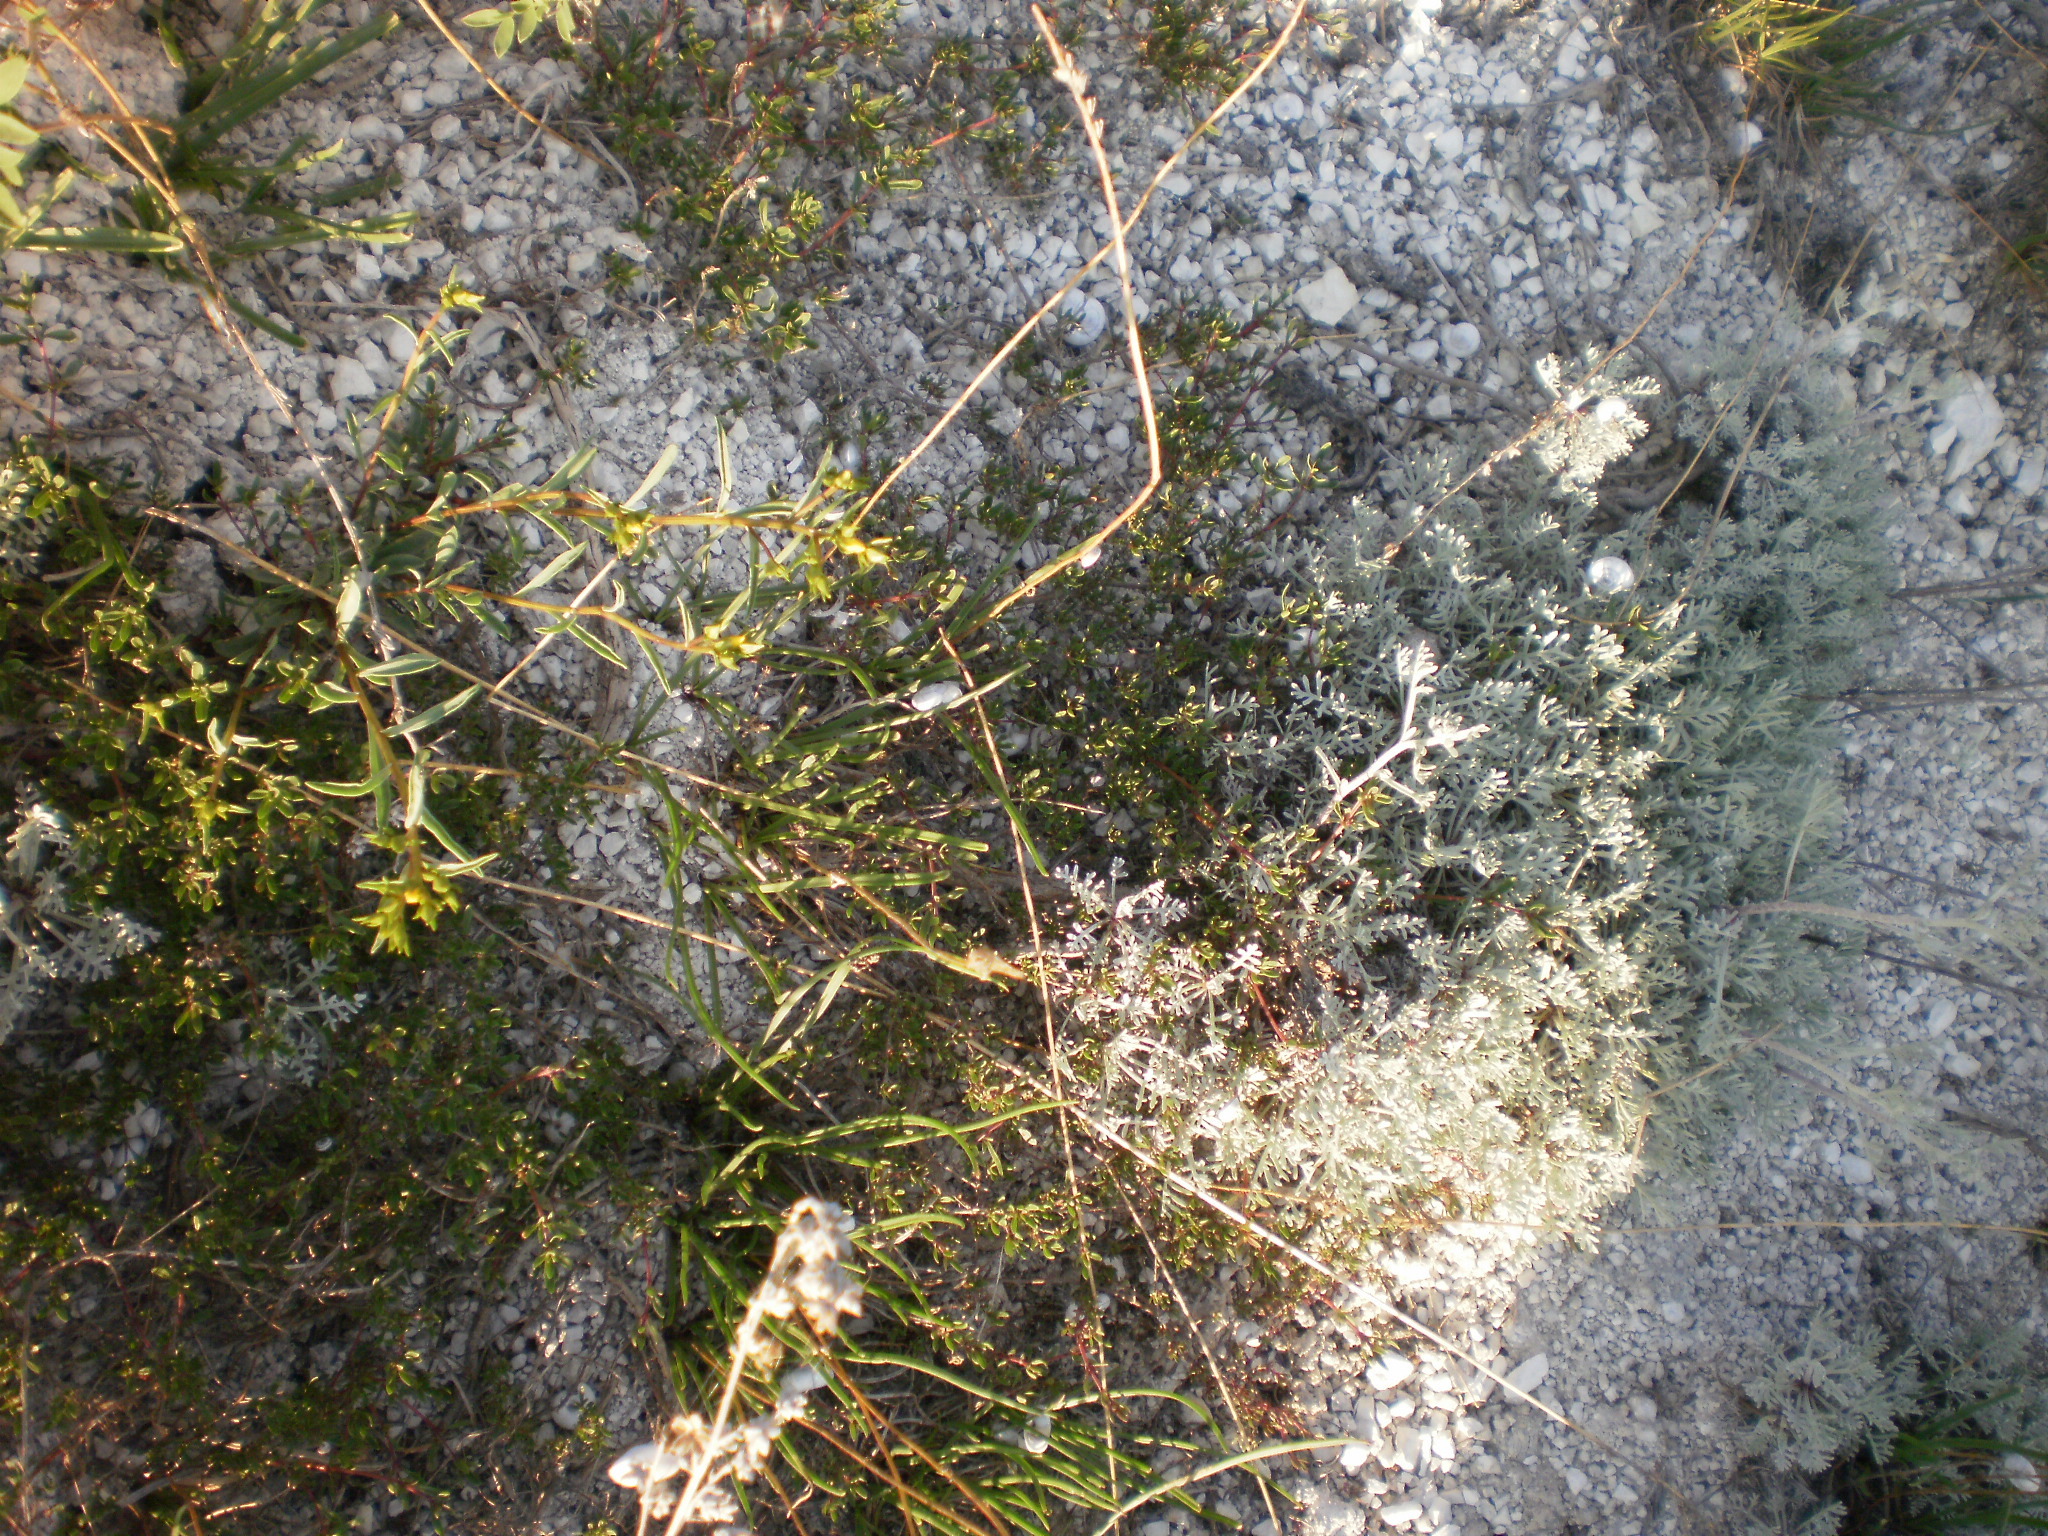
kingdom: Plantae
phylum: Tracheophyta
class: Magnoliopsida
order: Asterales
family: Asteraceae
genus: Artemisia
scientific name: Artemisia hololeuca
